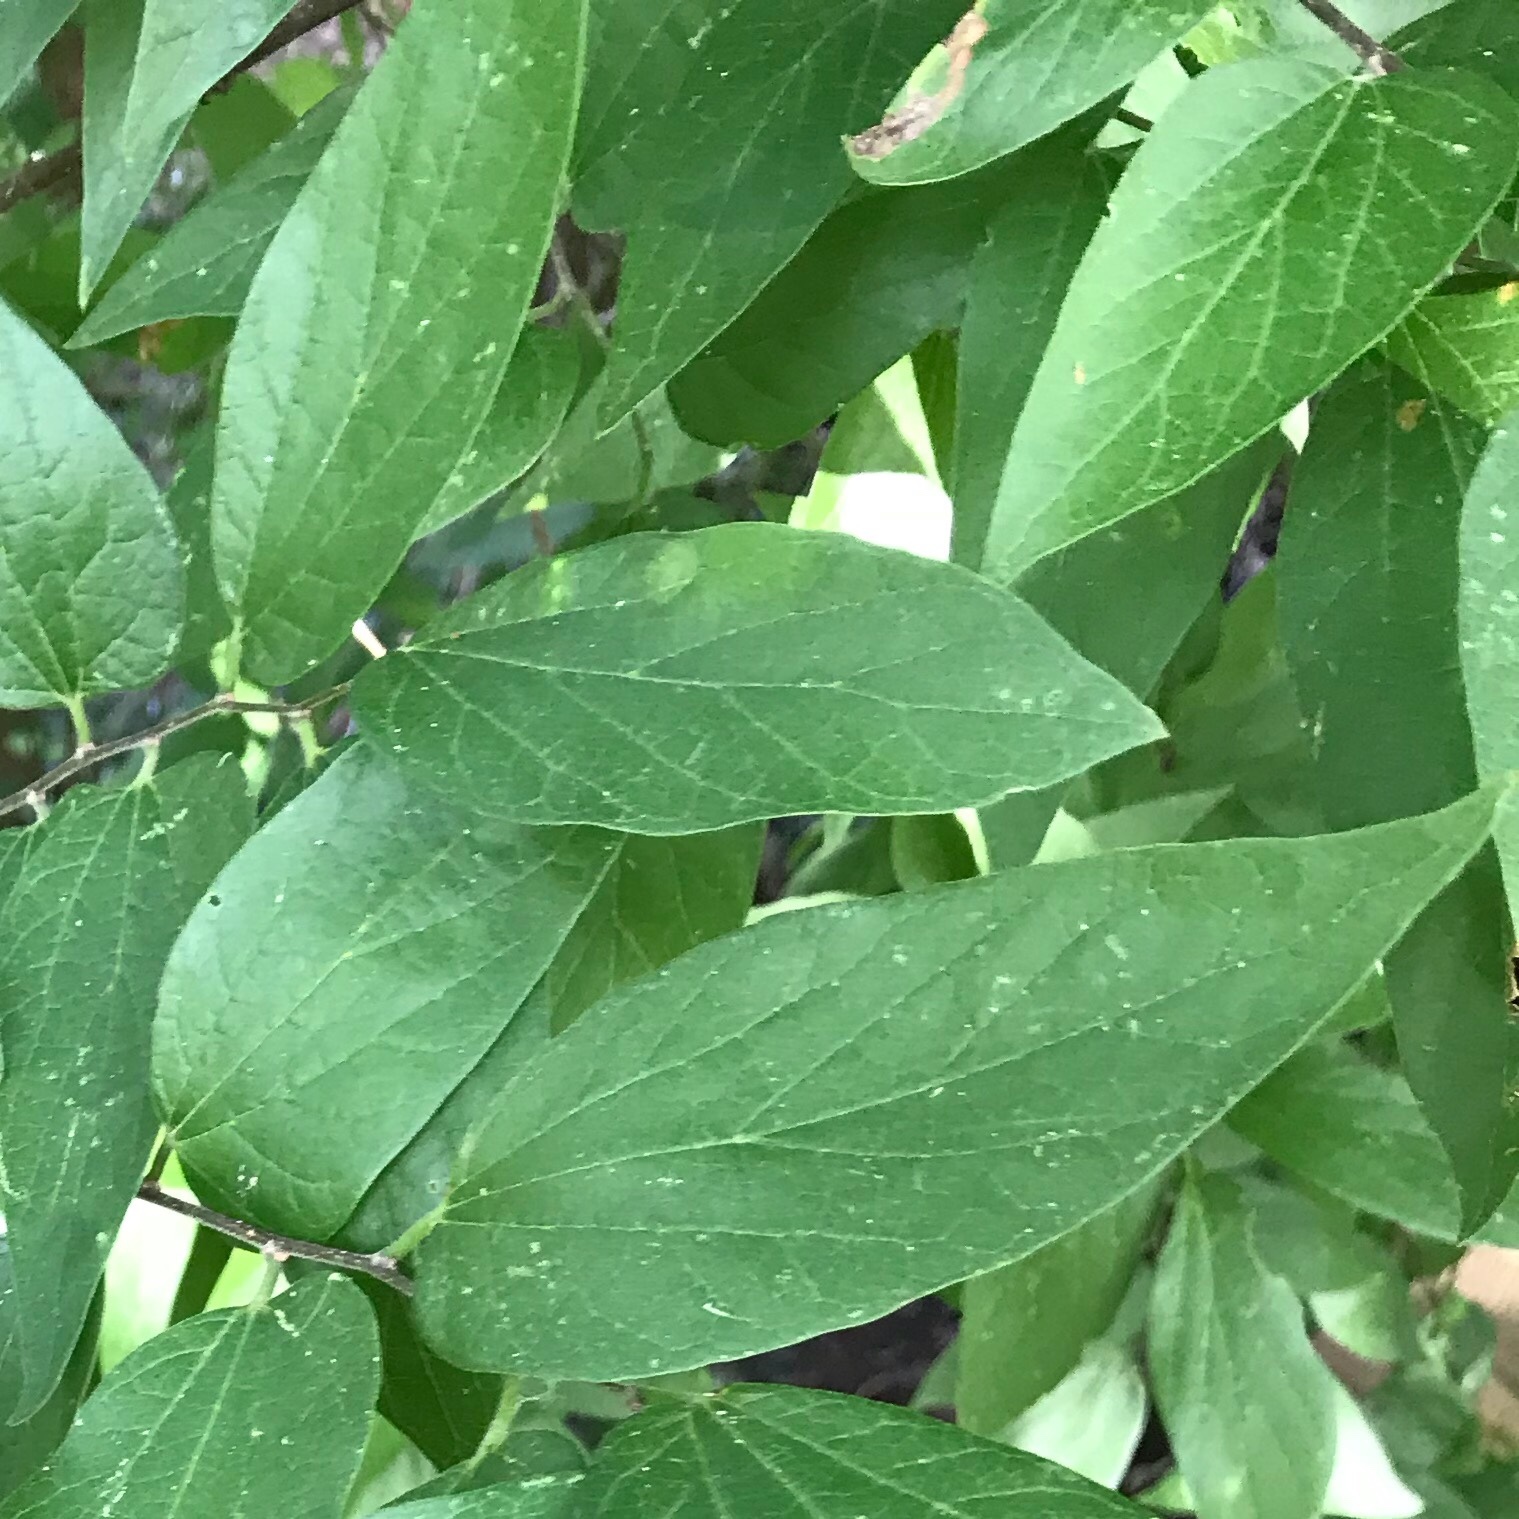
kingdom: Plantae
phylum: Tracheophyta
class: Magnoliopsida
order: Rosales
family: Cannabaceae
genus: Celtis
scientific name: Celtis laevigata
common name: Sugarberry
